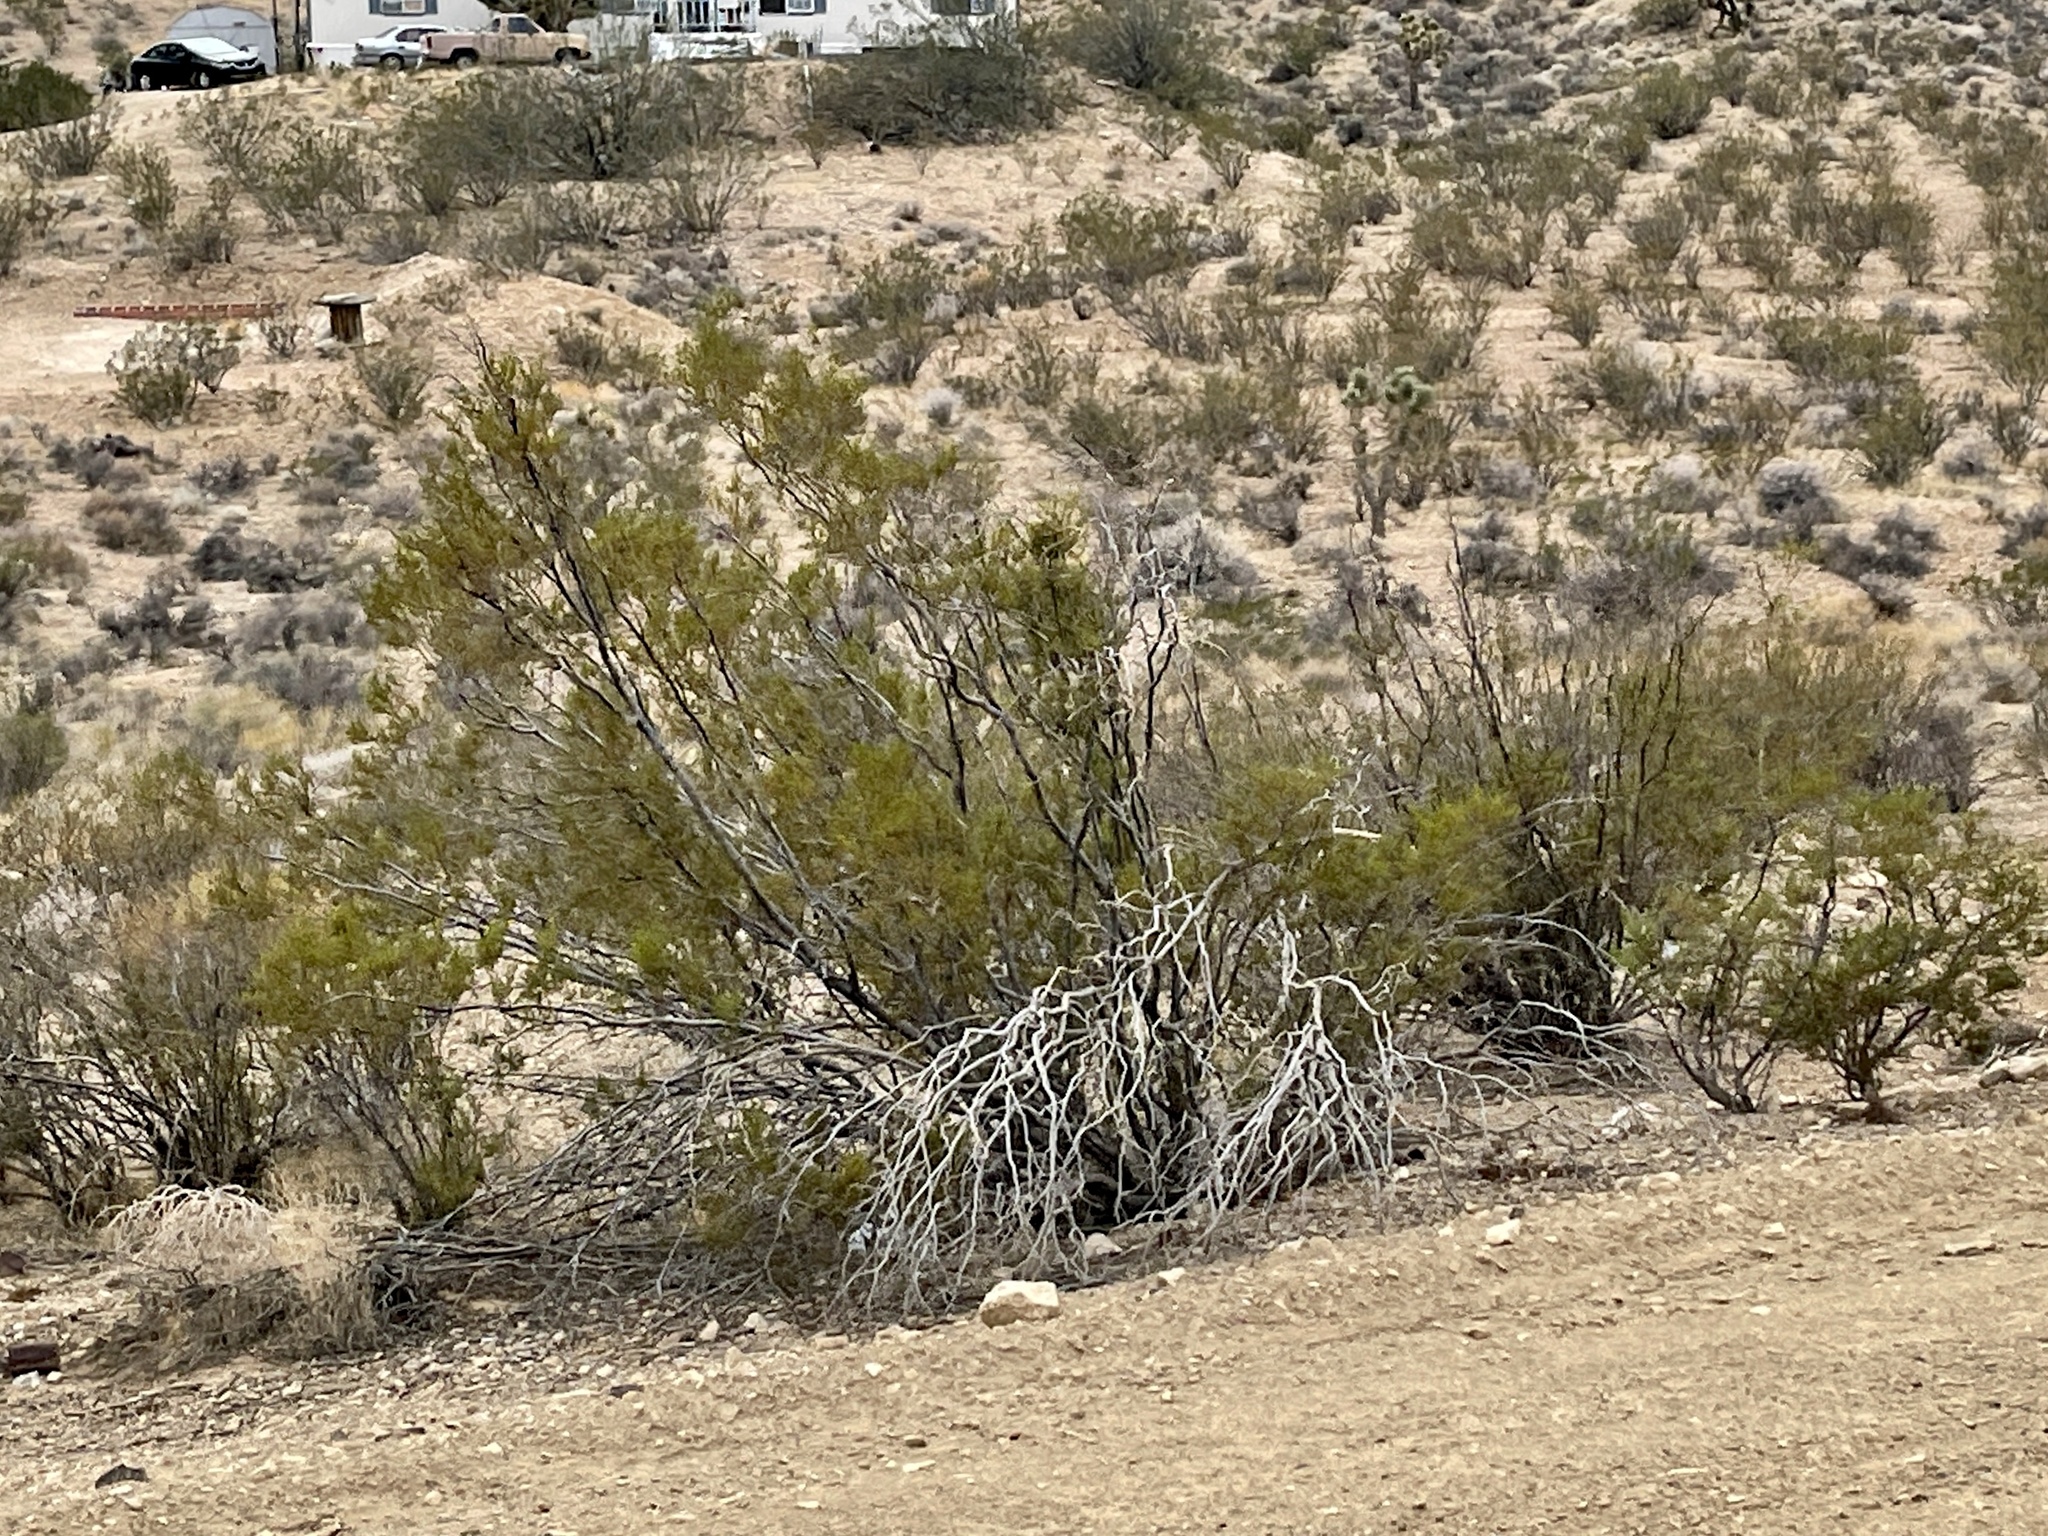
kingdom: Plantae
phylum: Tracheophyta
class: Magnoliopsida
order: Zygophyllales
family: Zygophyllaceae
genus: Larrea
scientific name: Larrea tridentata
